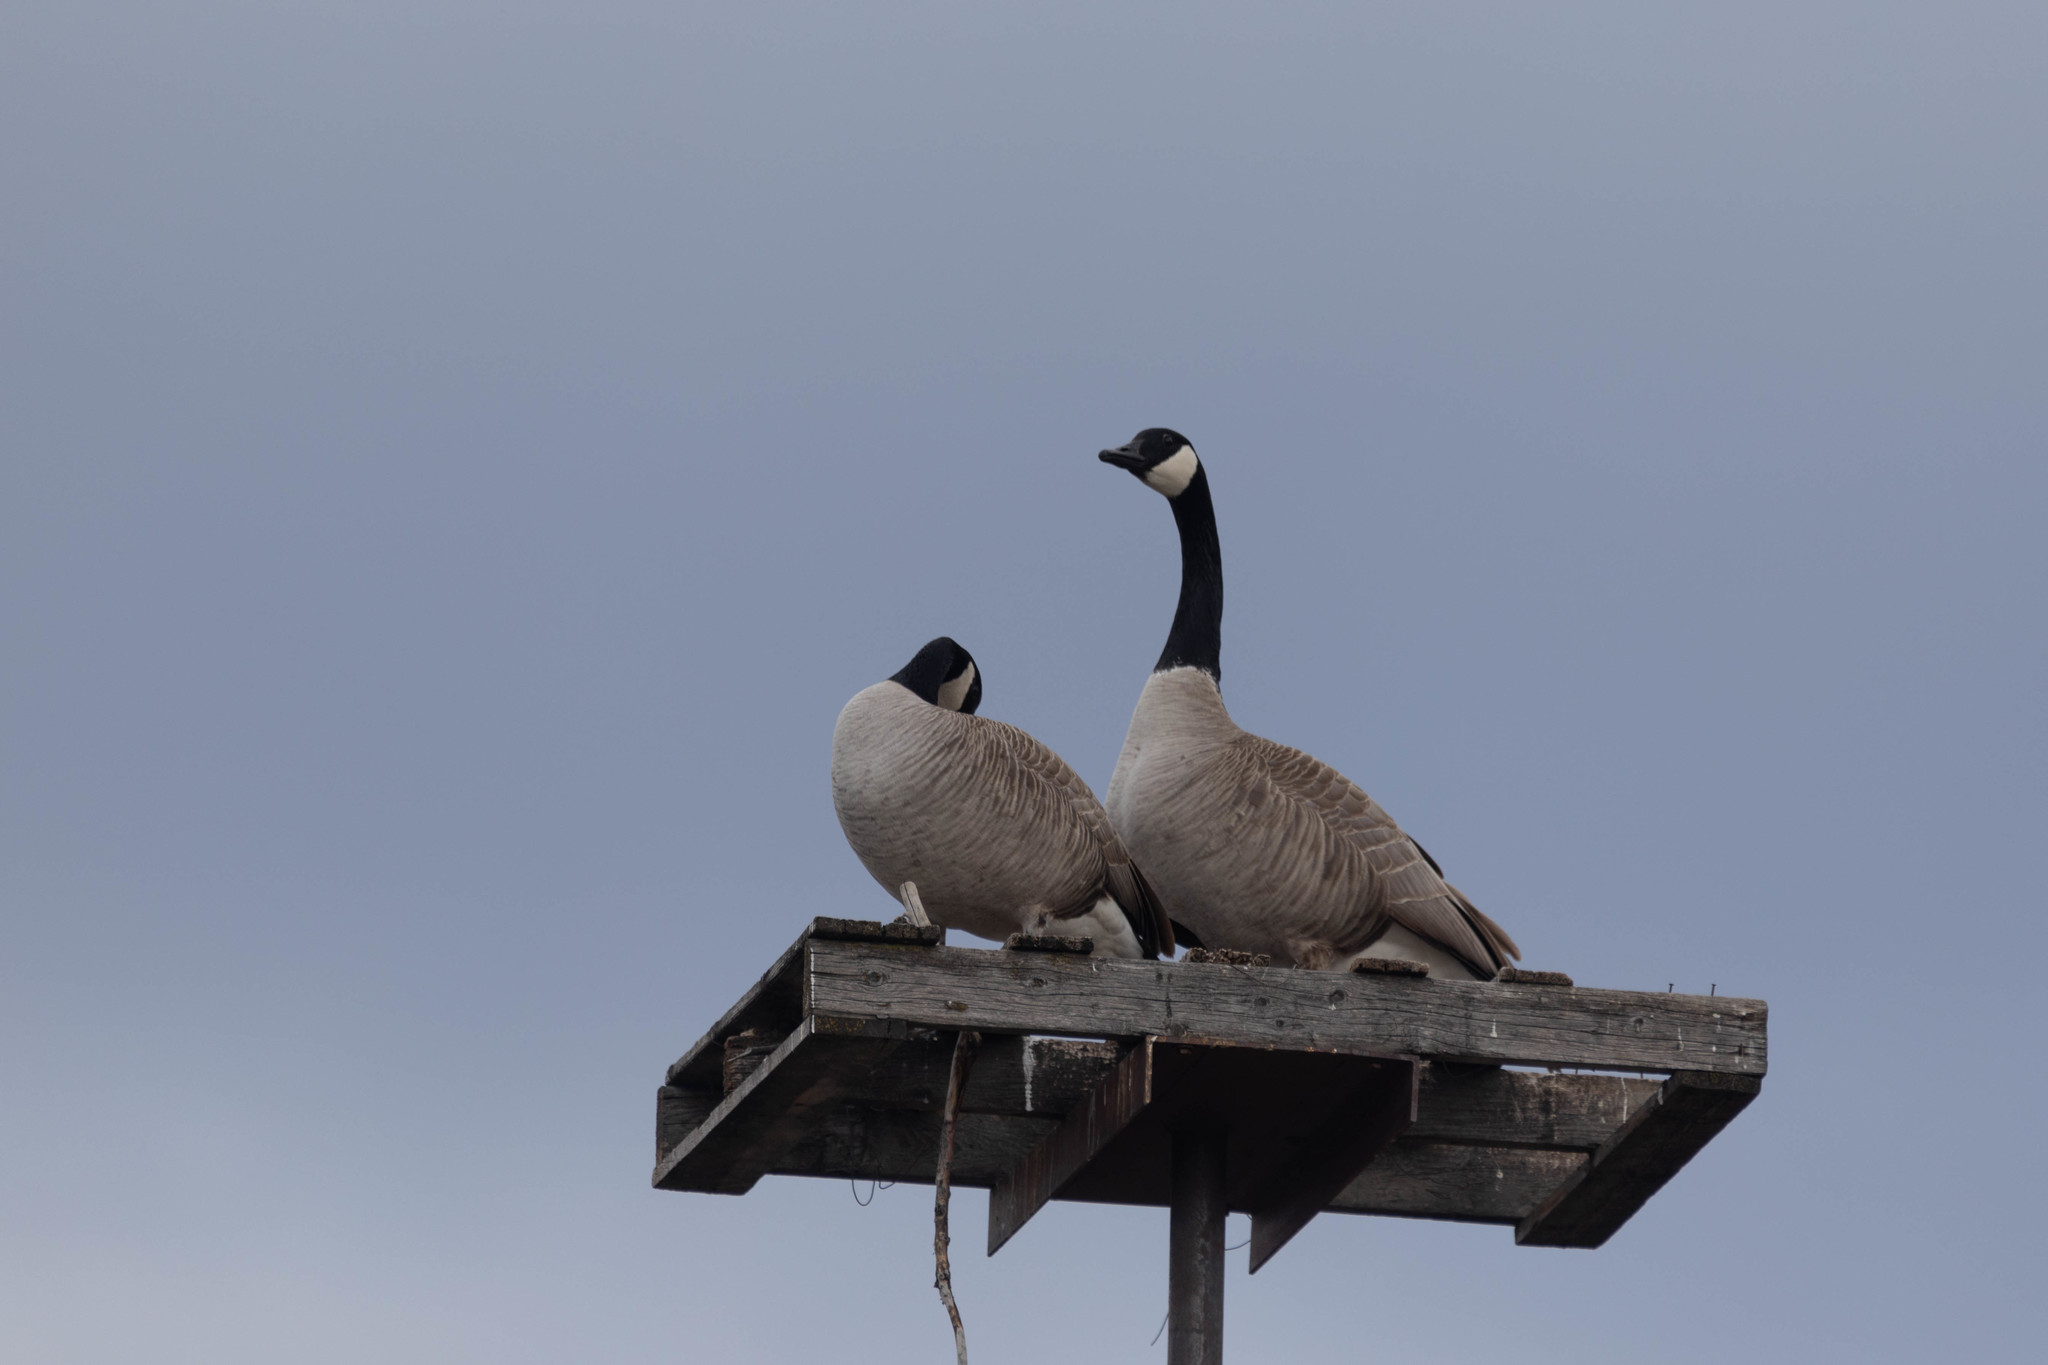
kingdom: Animalia
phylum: Chordata
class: Aves
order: Anseriformes
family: Anatidae
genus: Branta
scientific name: Branta canadensis
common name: Canada goose
